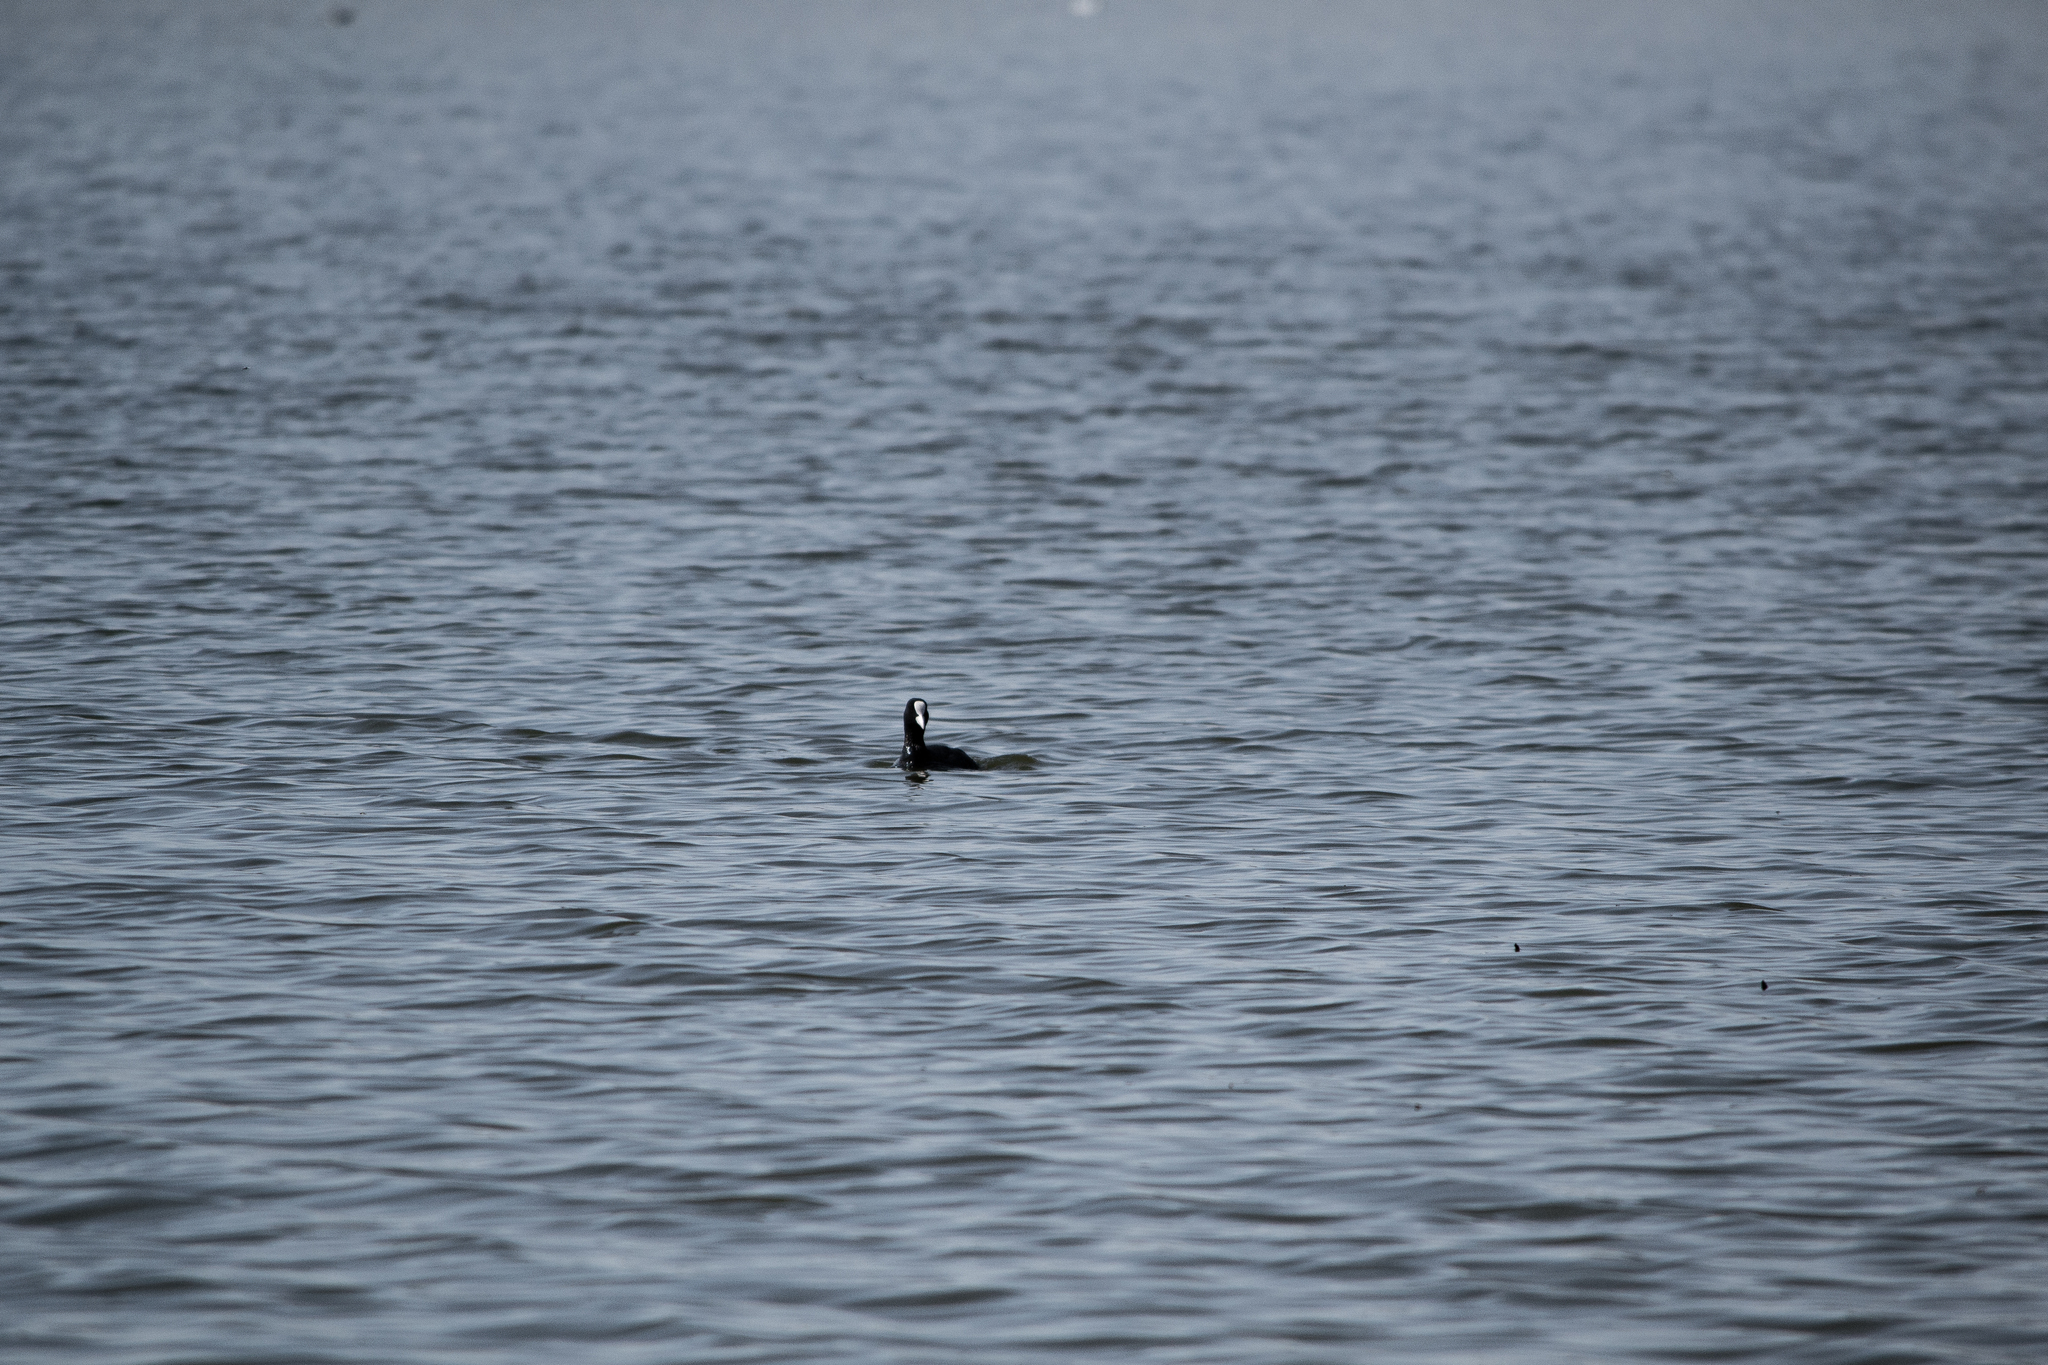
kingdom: Animalia
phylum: Chordata
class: Aves
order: Gruiformes
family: Rallidae
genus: Fulica
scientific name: Fulica atra
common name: Eurasian coot
